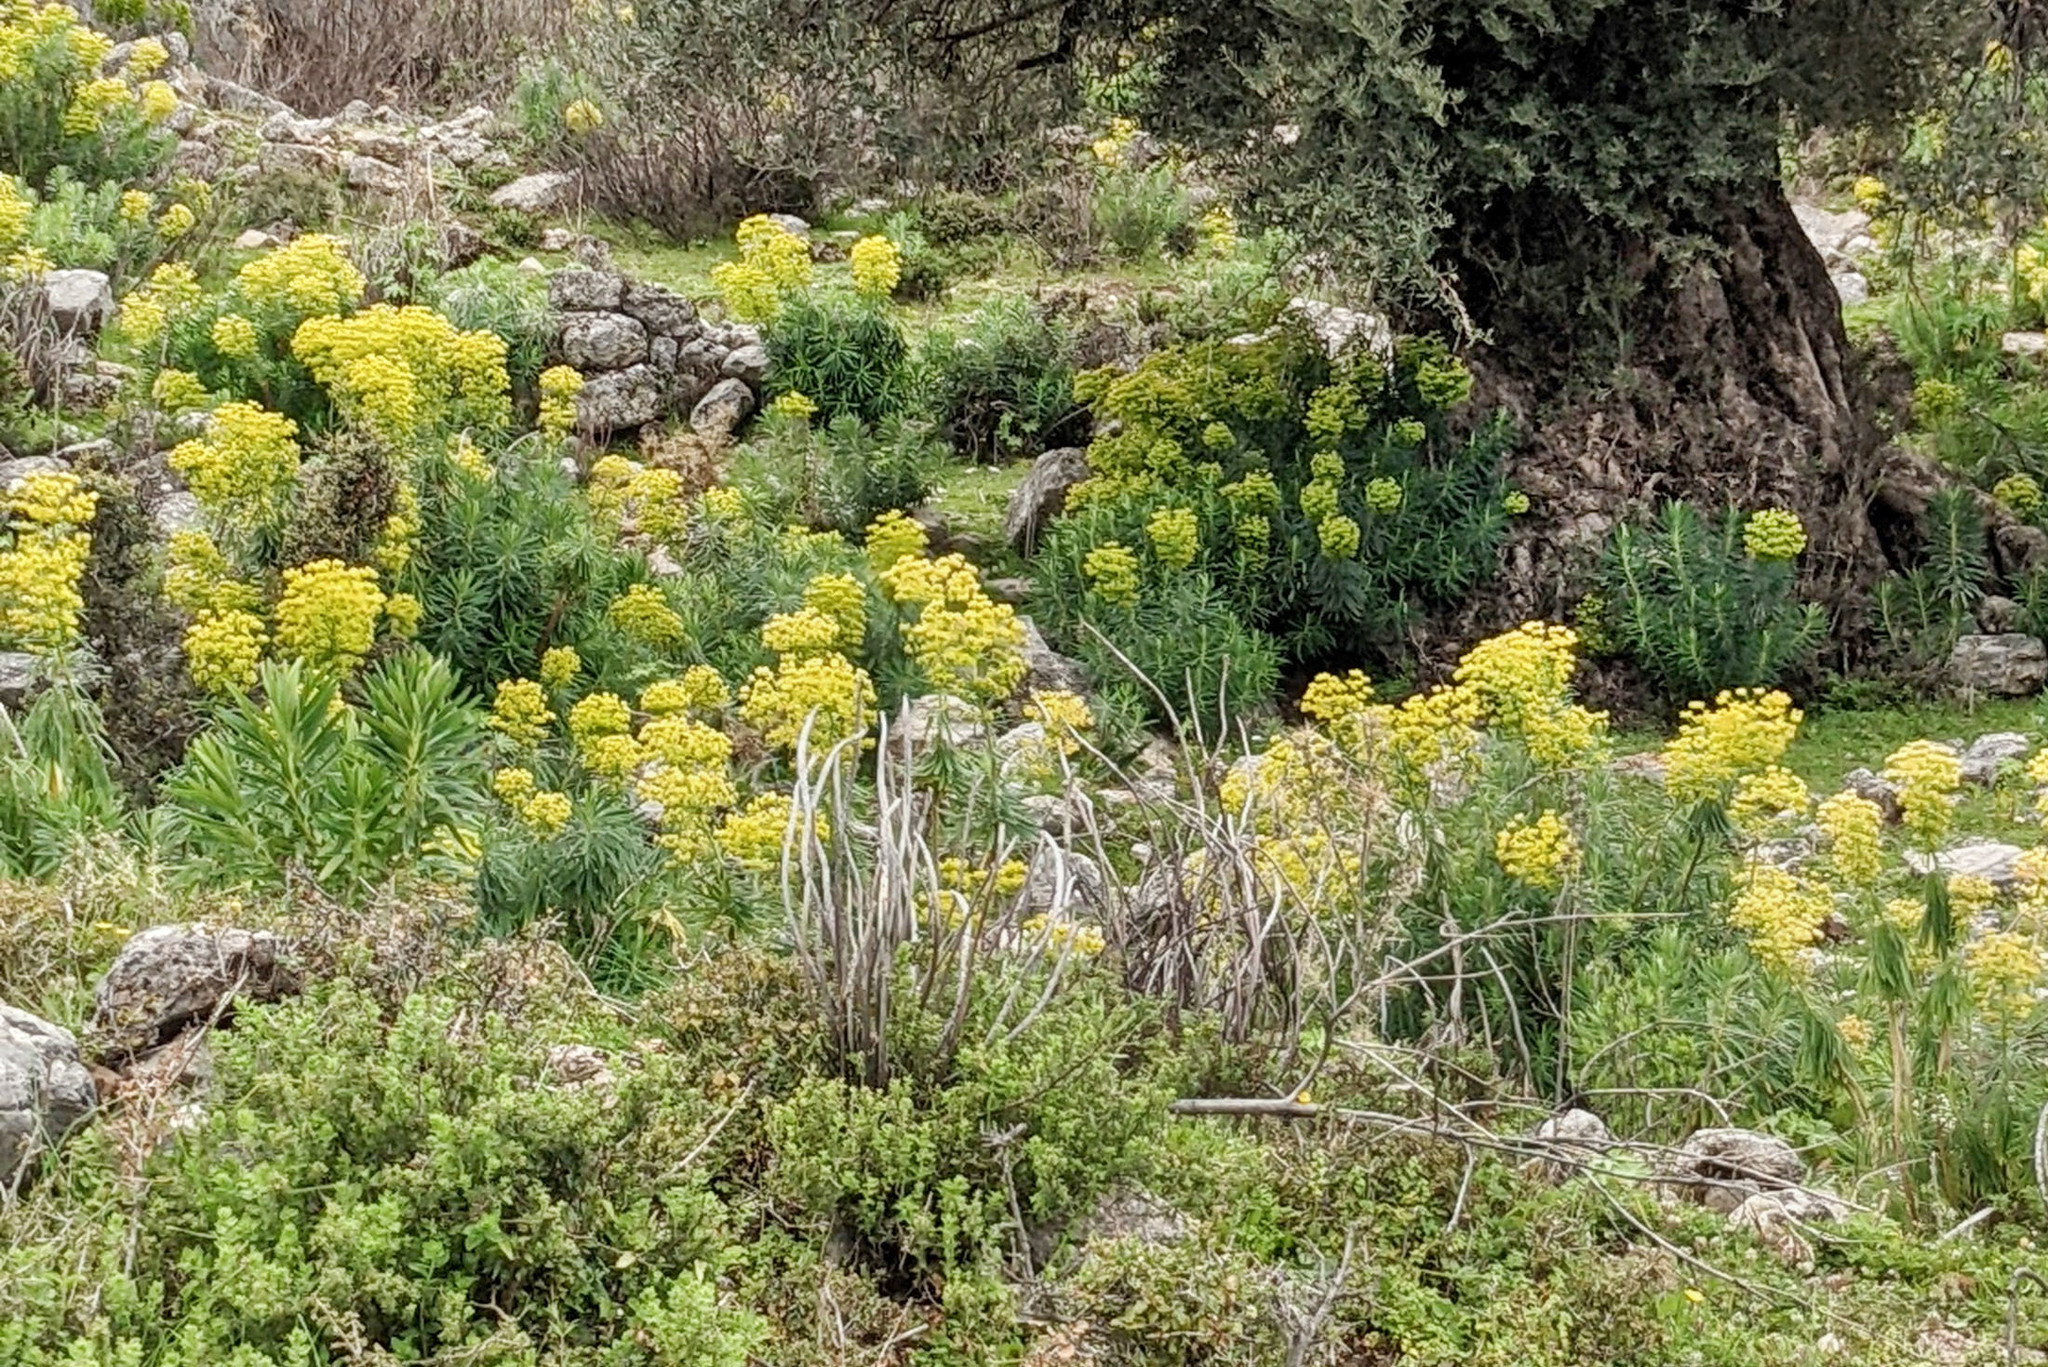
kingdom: Plantae
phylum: Tracheophyta
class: Magnoliopsida
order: Malpighiales
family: Euphorbiaceae
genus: Euphorbia
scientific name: Euphorbia characias
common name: Mediterranean spurge
